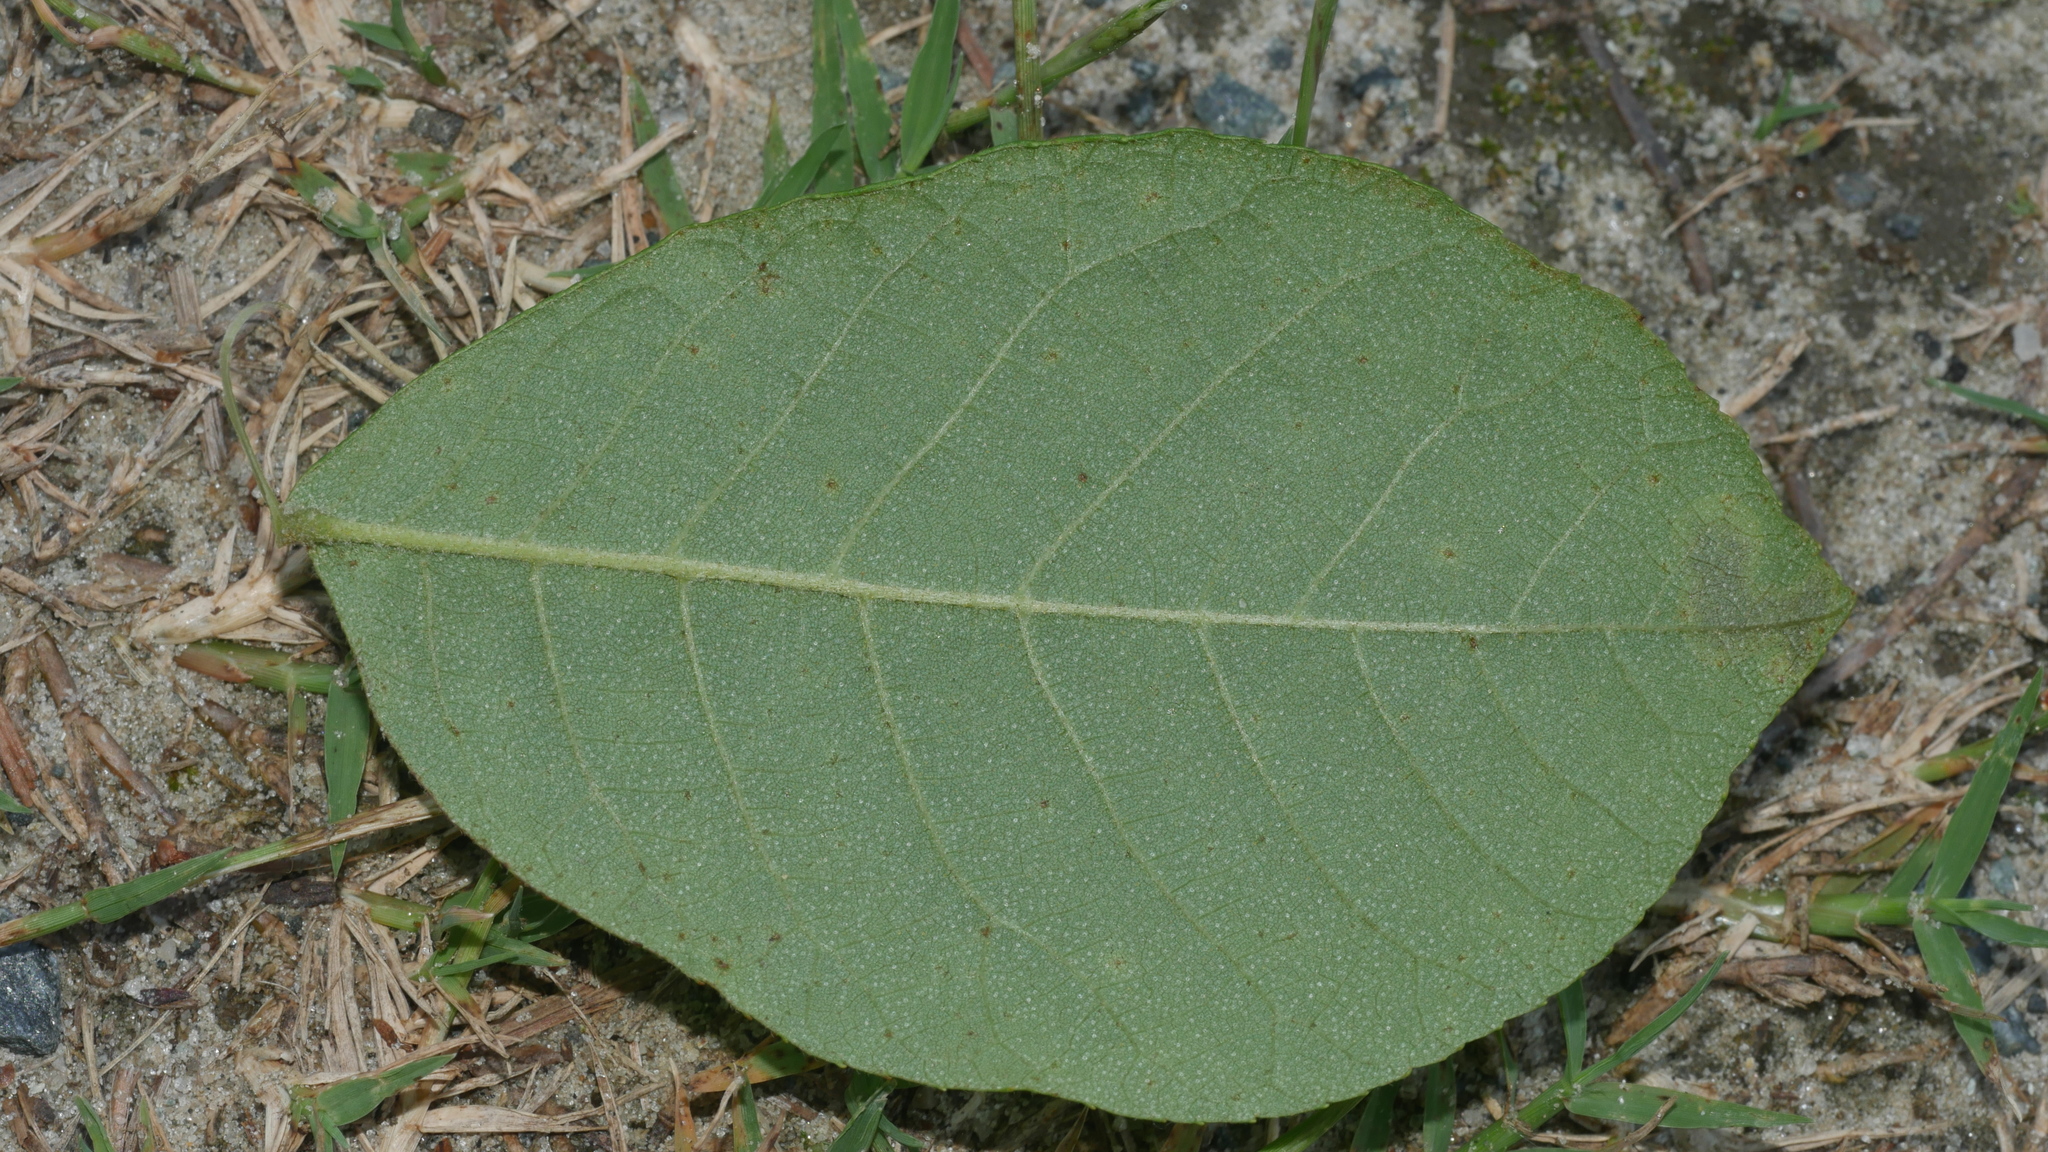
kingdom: Animalia
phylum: Arthropoda
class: Insecta
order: Lepidoptera
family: Gracillariidae
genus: Cameraria
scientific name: Cameraria caryaefoliella
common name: Pecan leafminer moth
